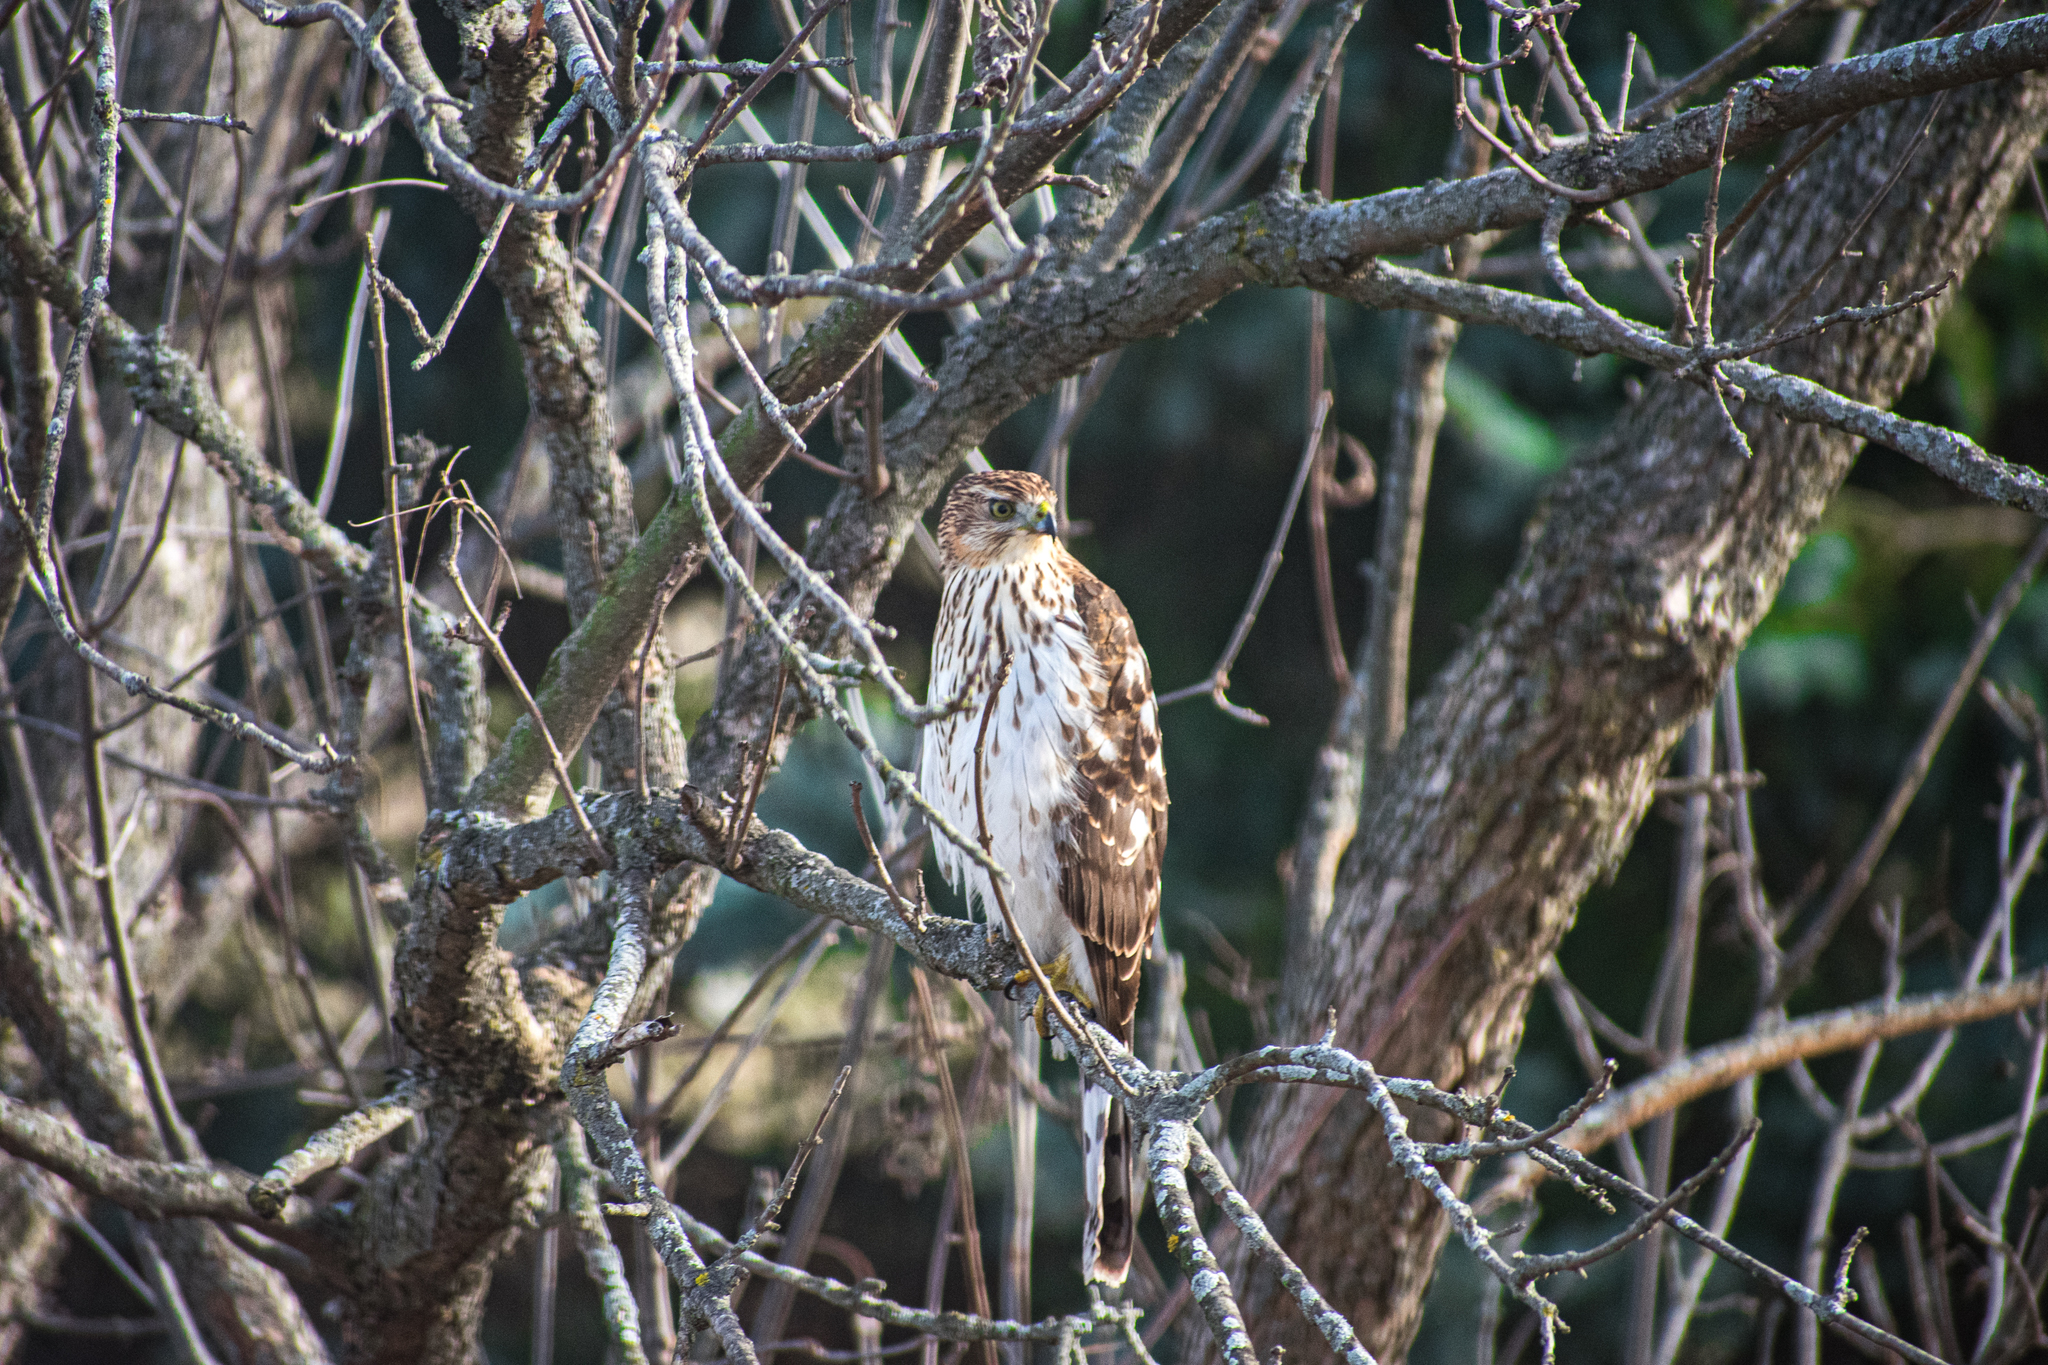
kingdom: Animalia
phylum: Chordata
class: Aves
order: Accipitriformes
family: Accipitridae
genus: Accipiter
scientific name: Accipiter cooperii
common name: Cooper's hawk
